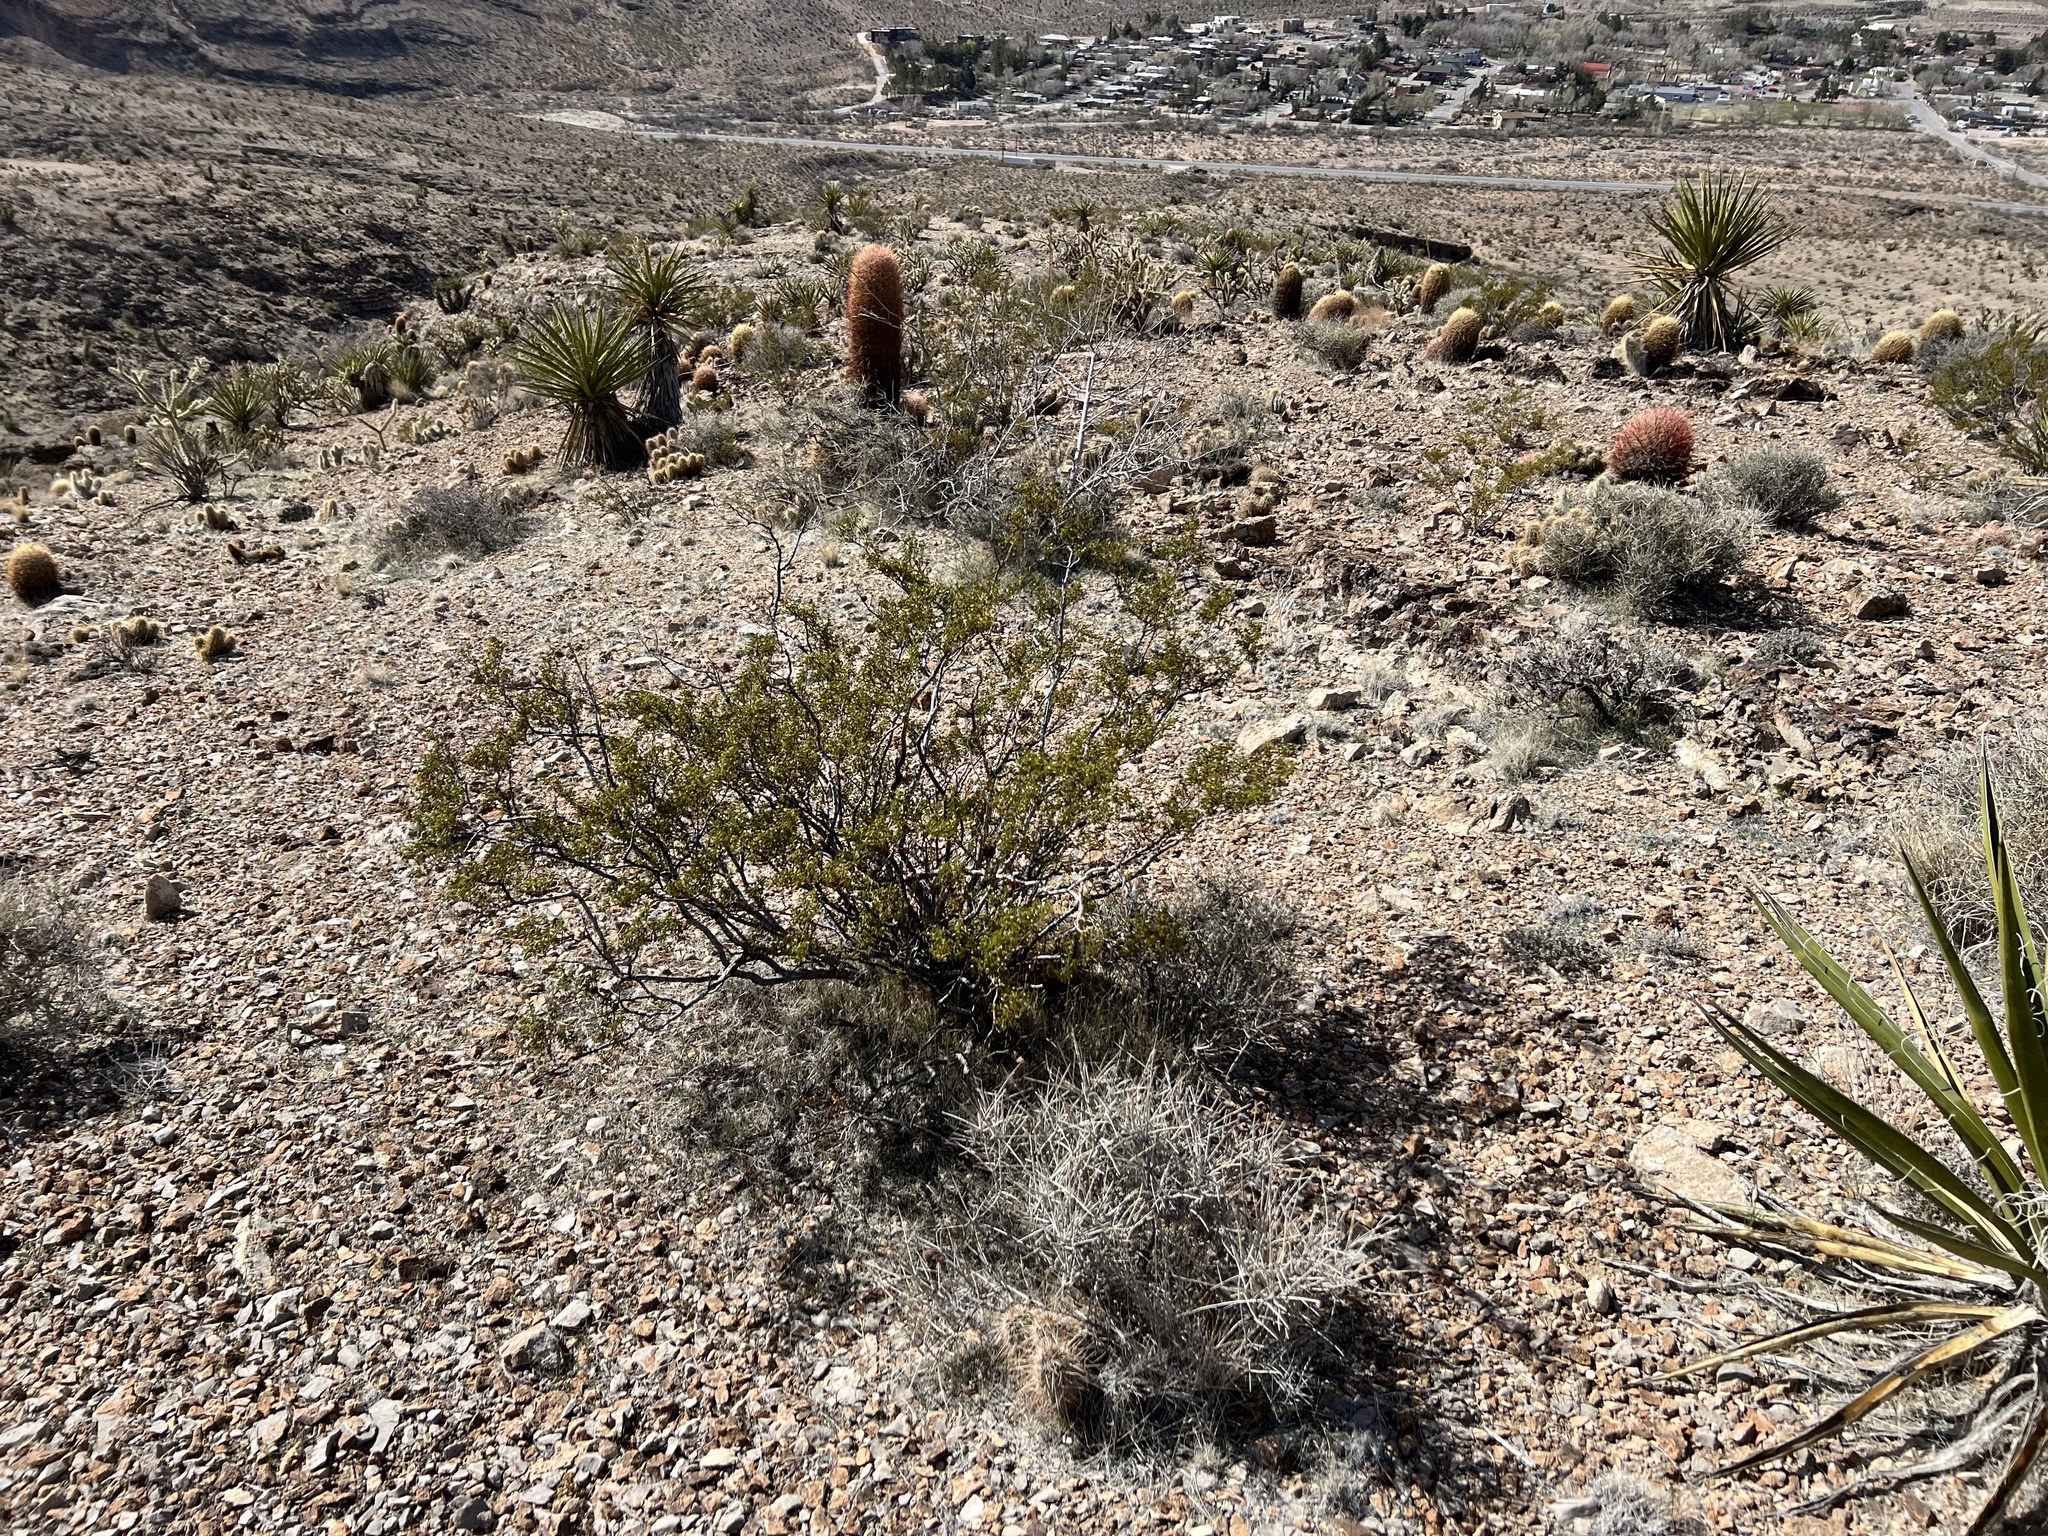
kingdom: Plantae
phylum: Tracheophyta
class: Magnoliopsida
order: Zygophyllales
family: Zygophyllaceae
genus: Larrea
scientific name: Larrea tridentata
